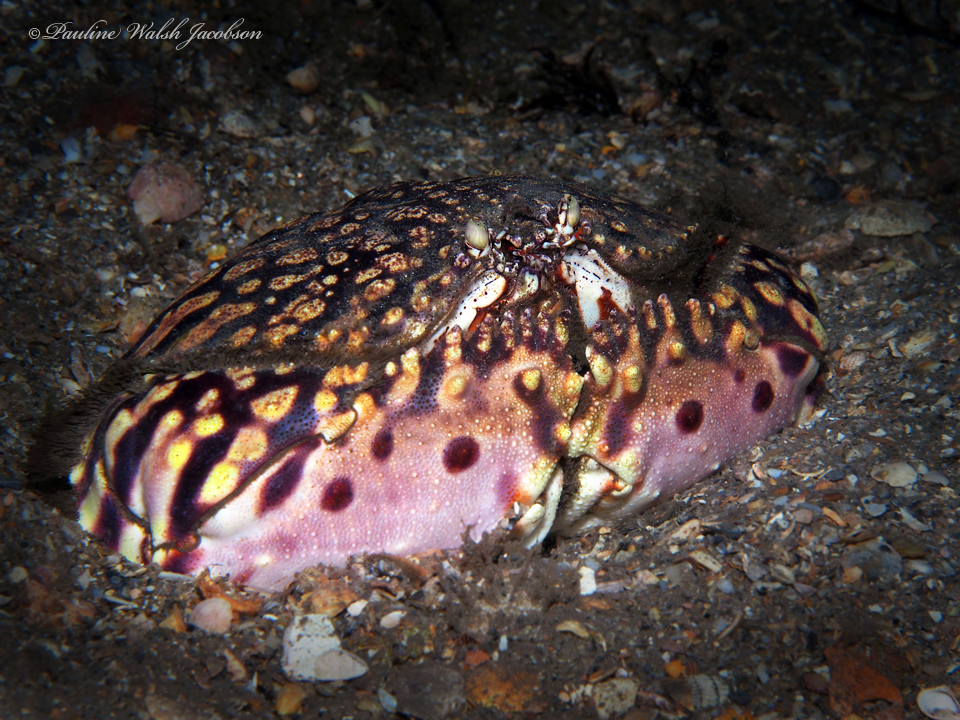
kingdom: Animalia
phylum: Arthropoda
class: Malacostraca
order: Decapoda
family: Calappidae
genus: Calappa
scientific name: Calappa flammea
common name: Flamed box crab
